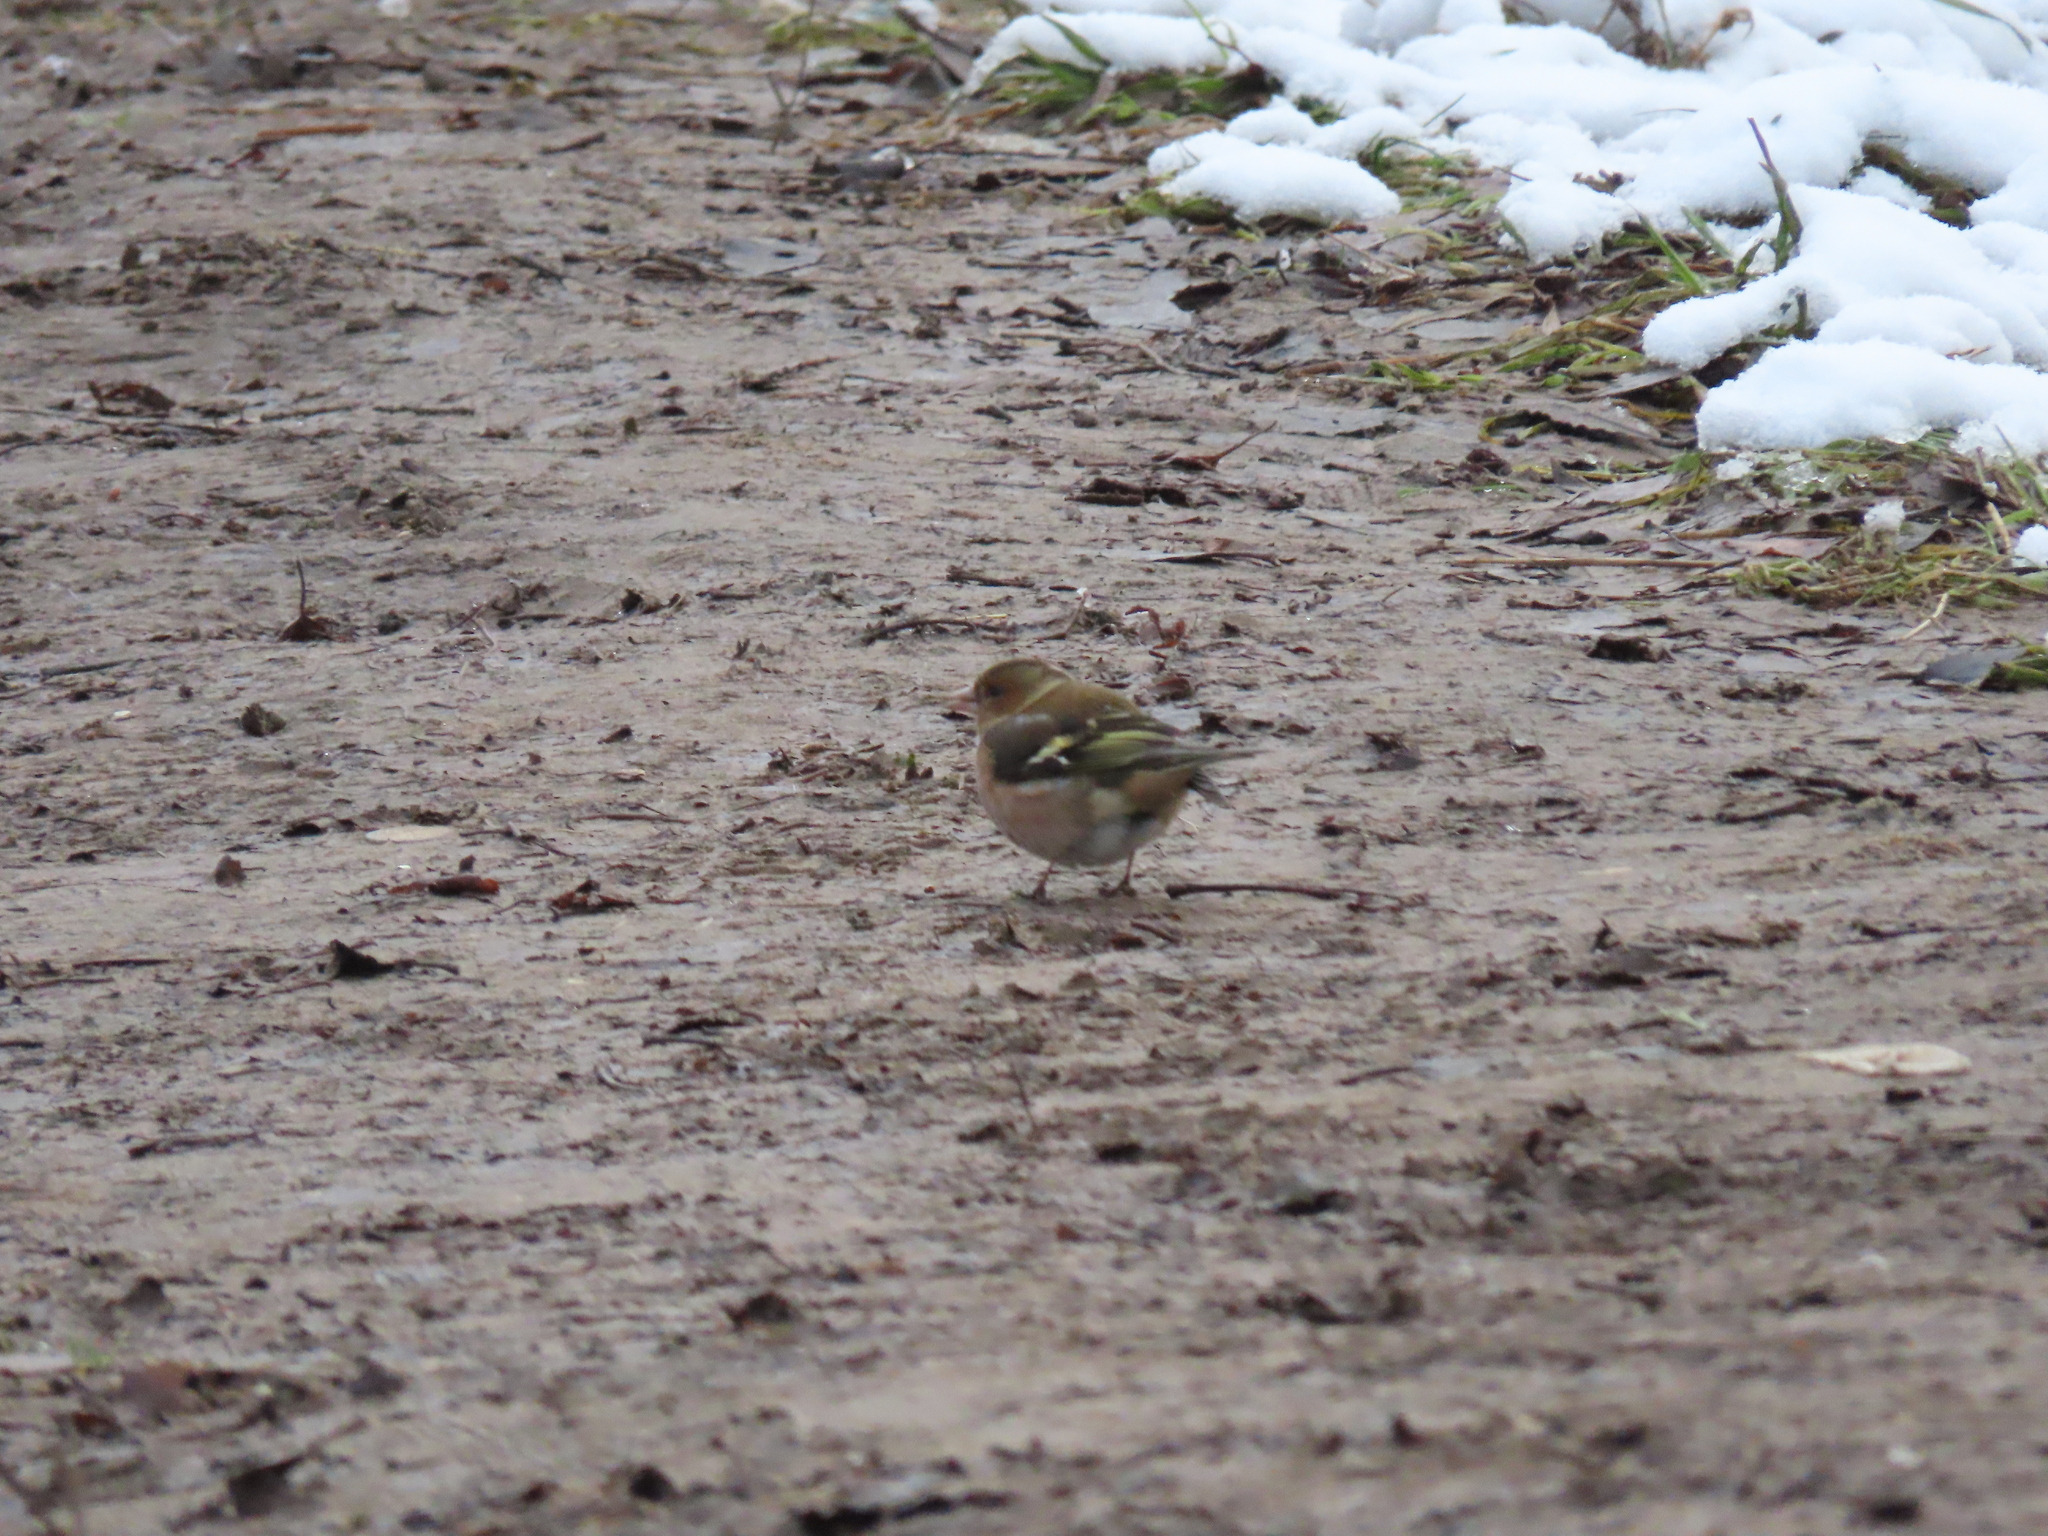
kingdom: Animalia
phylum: Chordata
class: Aves
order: Passeriformes
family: Fringillidae
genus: Fringilla
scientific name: Fringilla coelebs
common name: Common chaffinch
